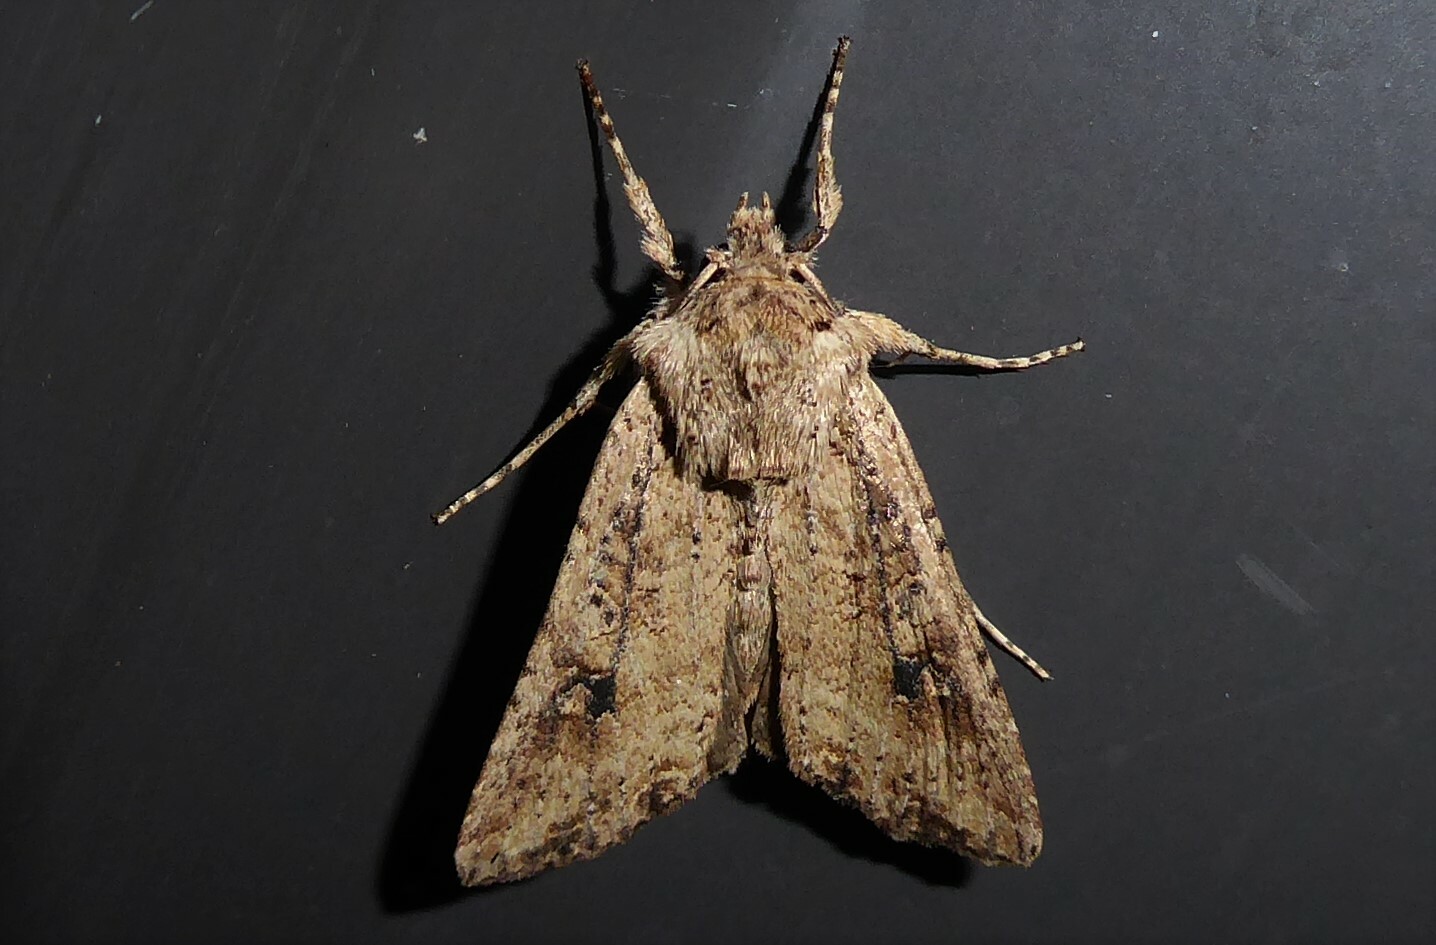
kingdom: Animalia
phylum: Arthropoda
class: Insecta
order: Lepidoptera
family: Noctuidae
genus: Ichneutica
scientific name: Ichneutica lignana
